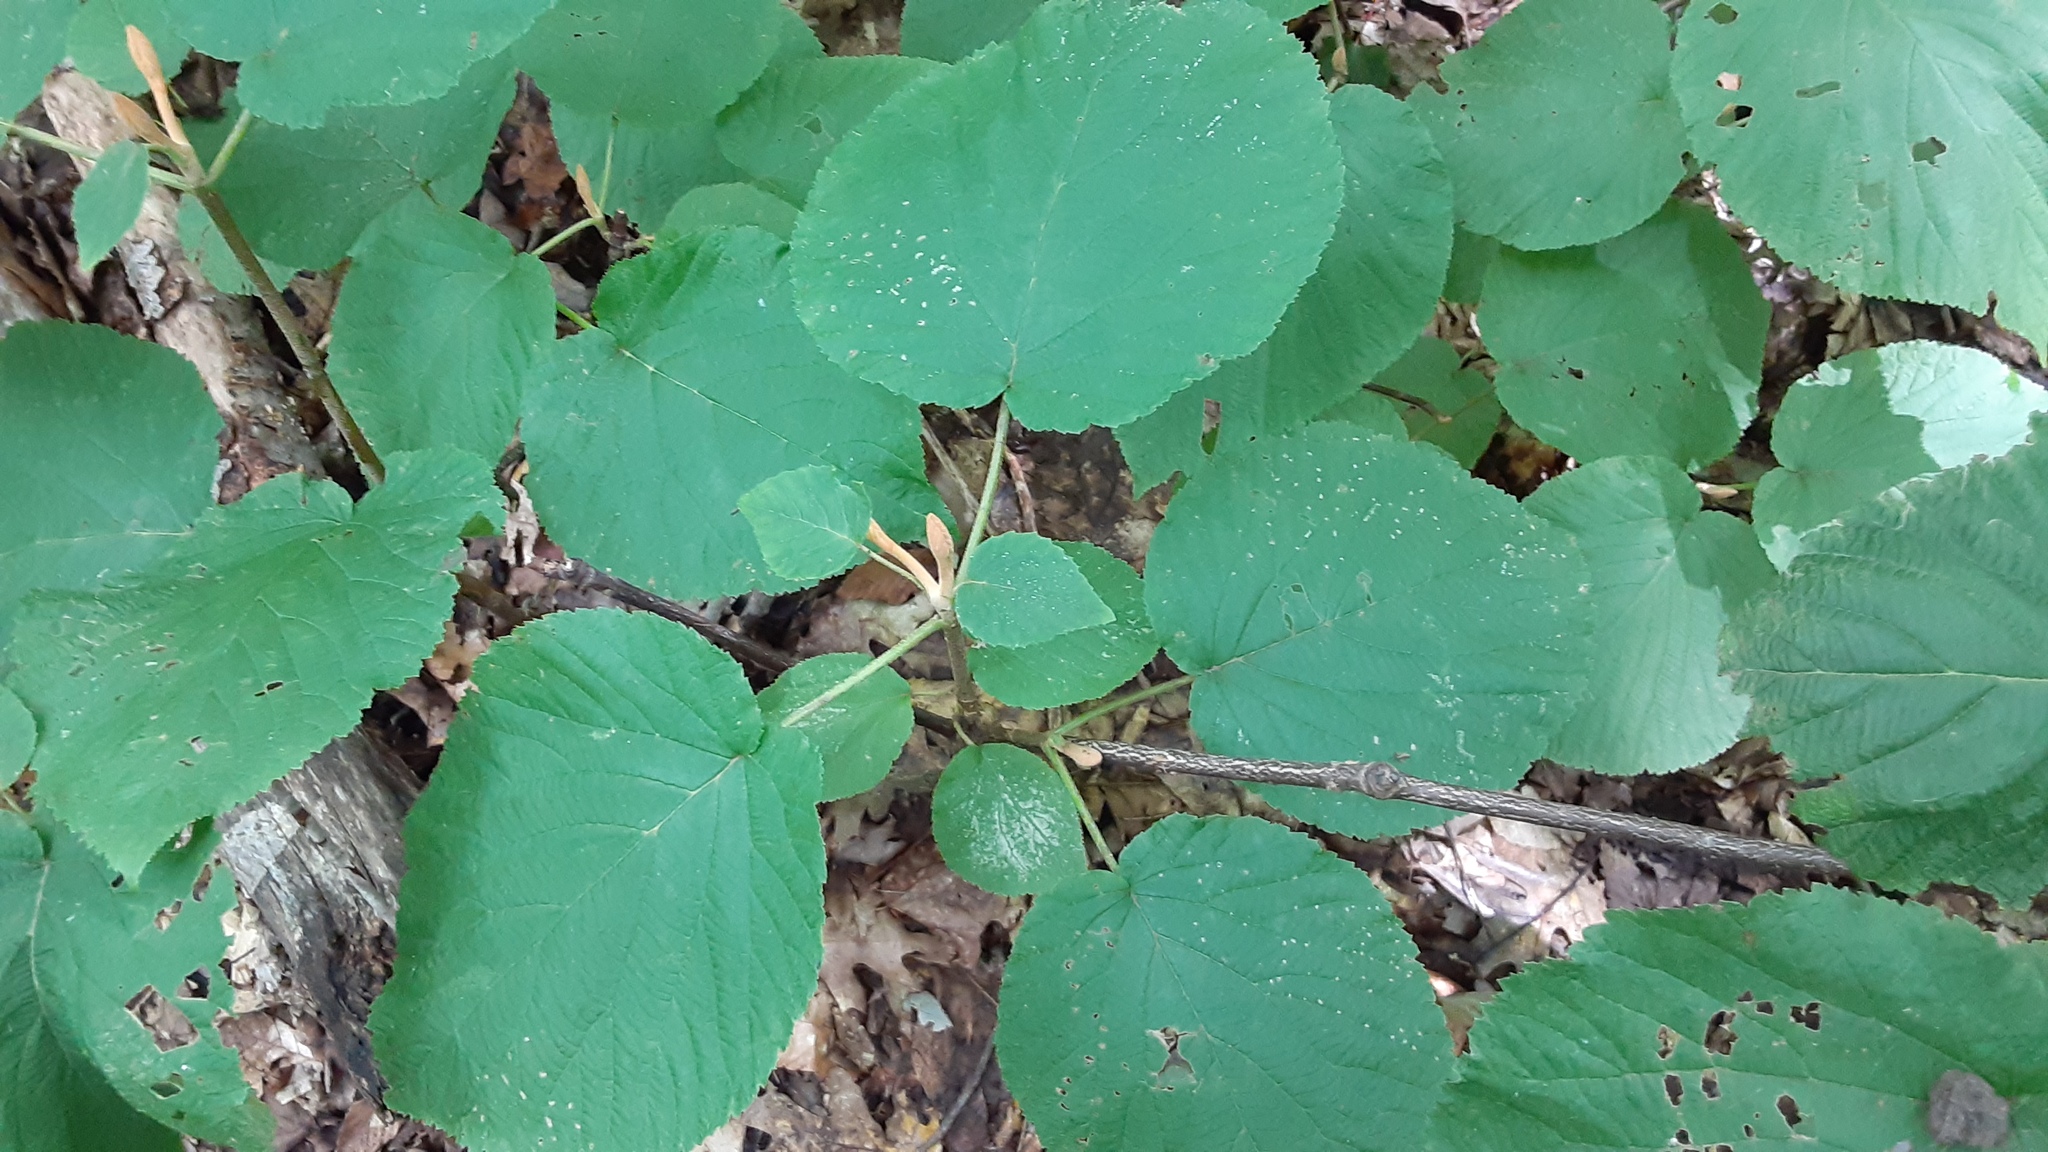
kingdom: Plantae
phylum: Tracheophyta
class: Magnoliopsida
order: Dipsacales
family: Viburnaceae
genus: Viburnum
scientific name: Viburnum lantanoides
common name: Hobblebush
